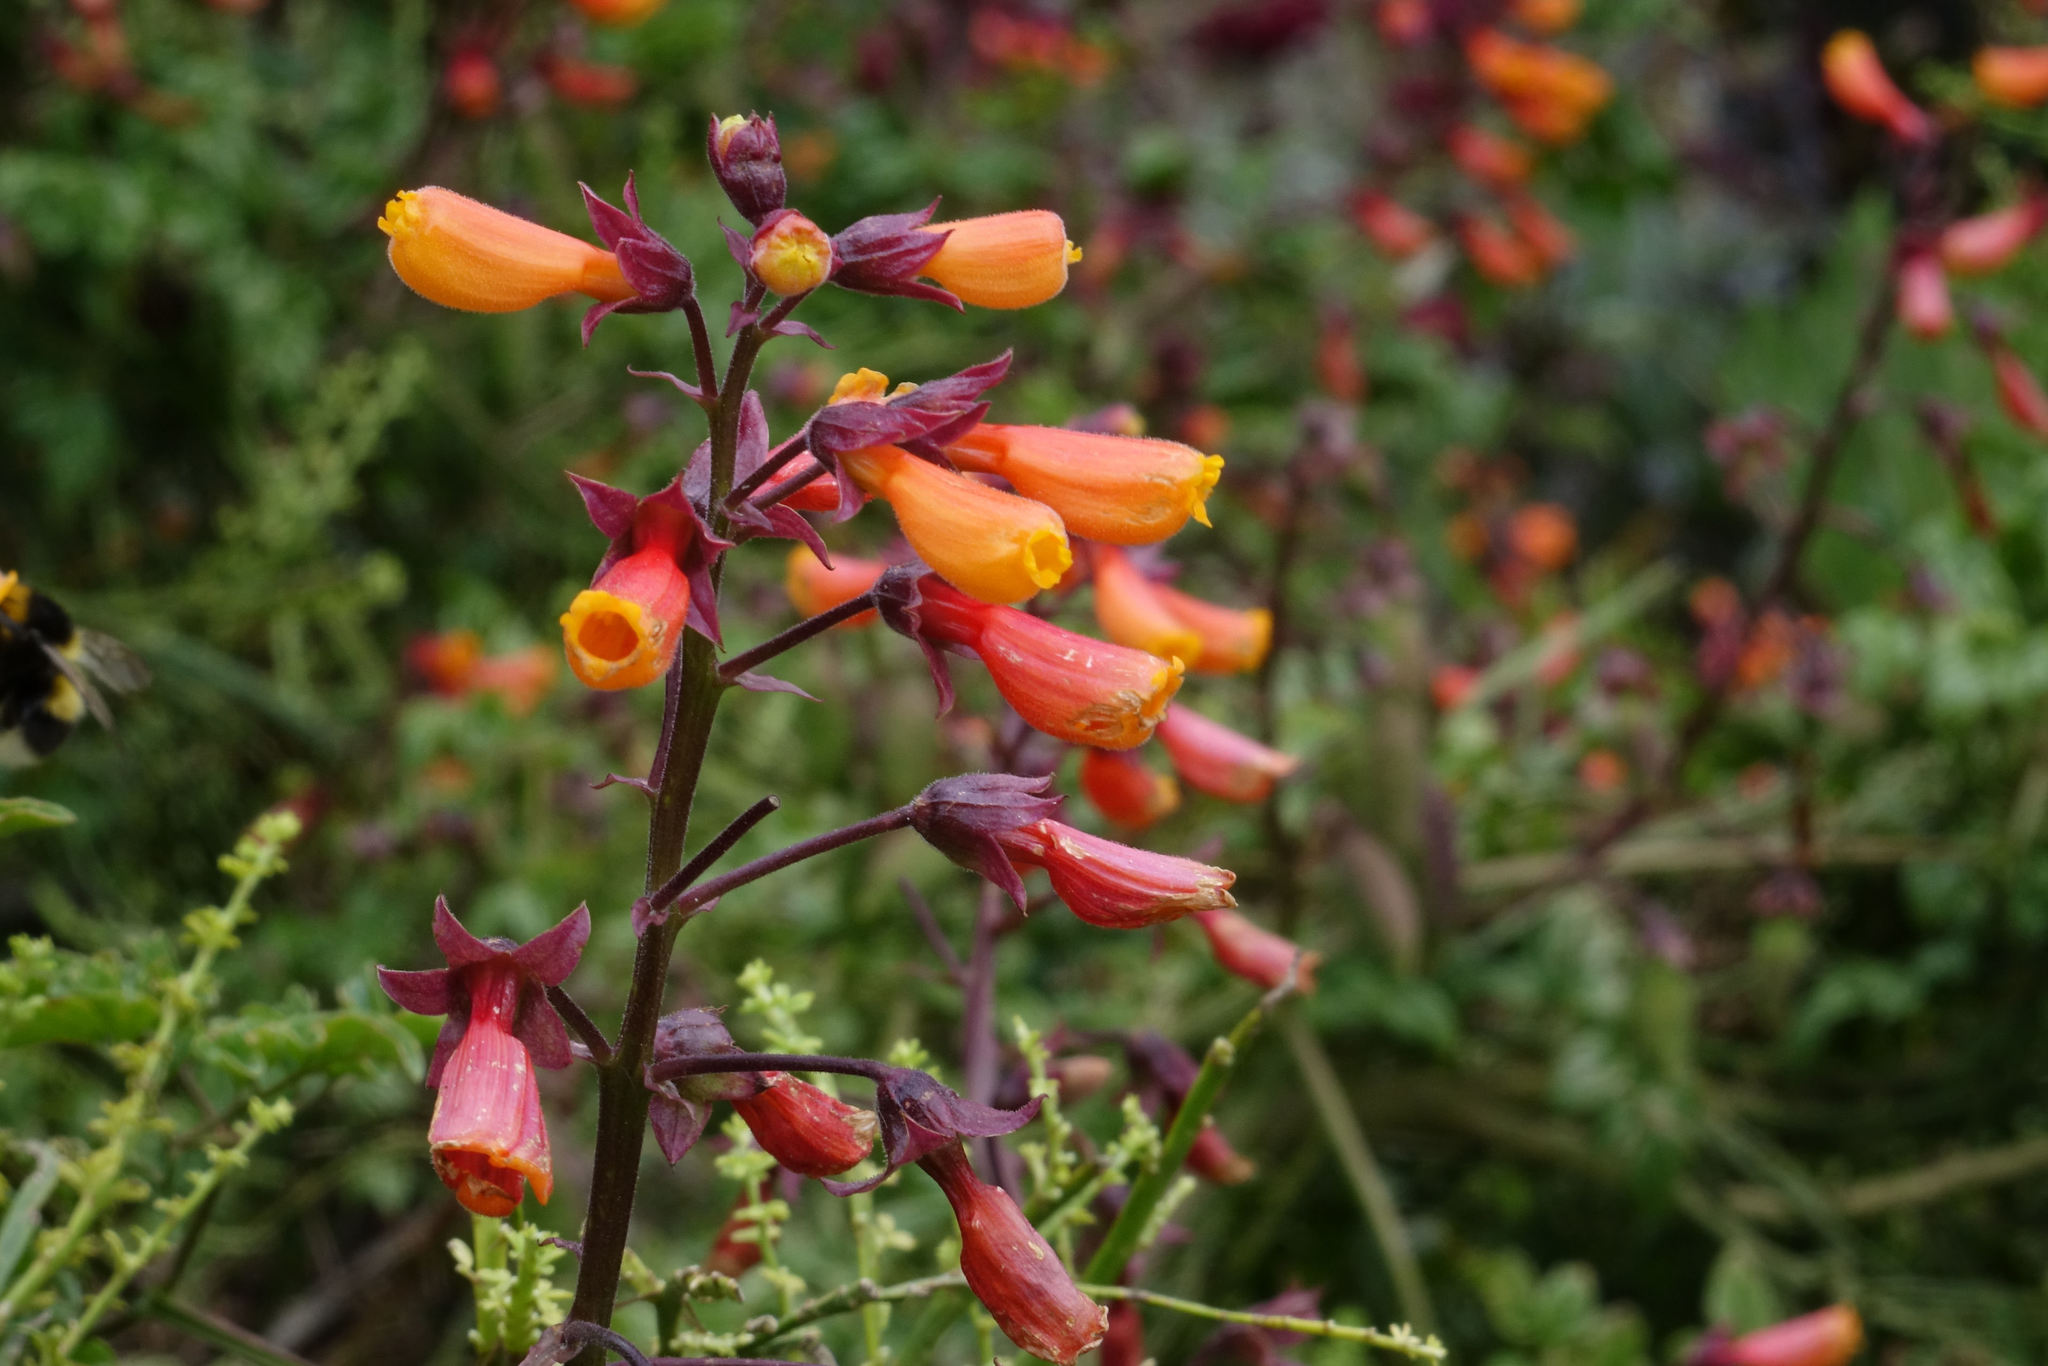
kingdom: Plantae
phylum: Tracheophyta
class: Magnoliopsida
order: Lamiales
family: Bignoniaceae
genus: Eccremocarpus
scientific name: Eccremocarpus scaber
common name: Chilean glory-flower
